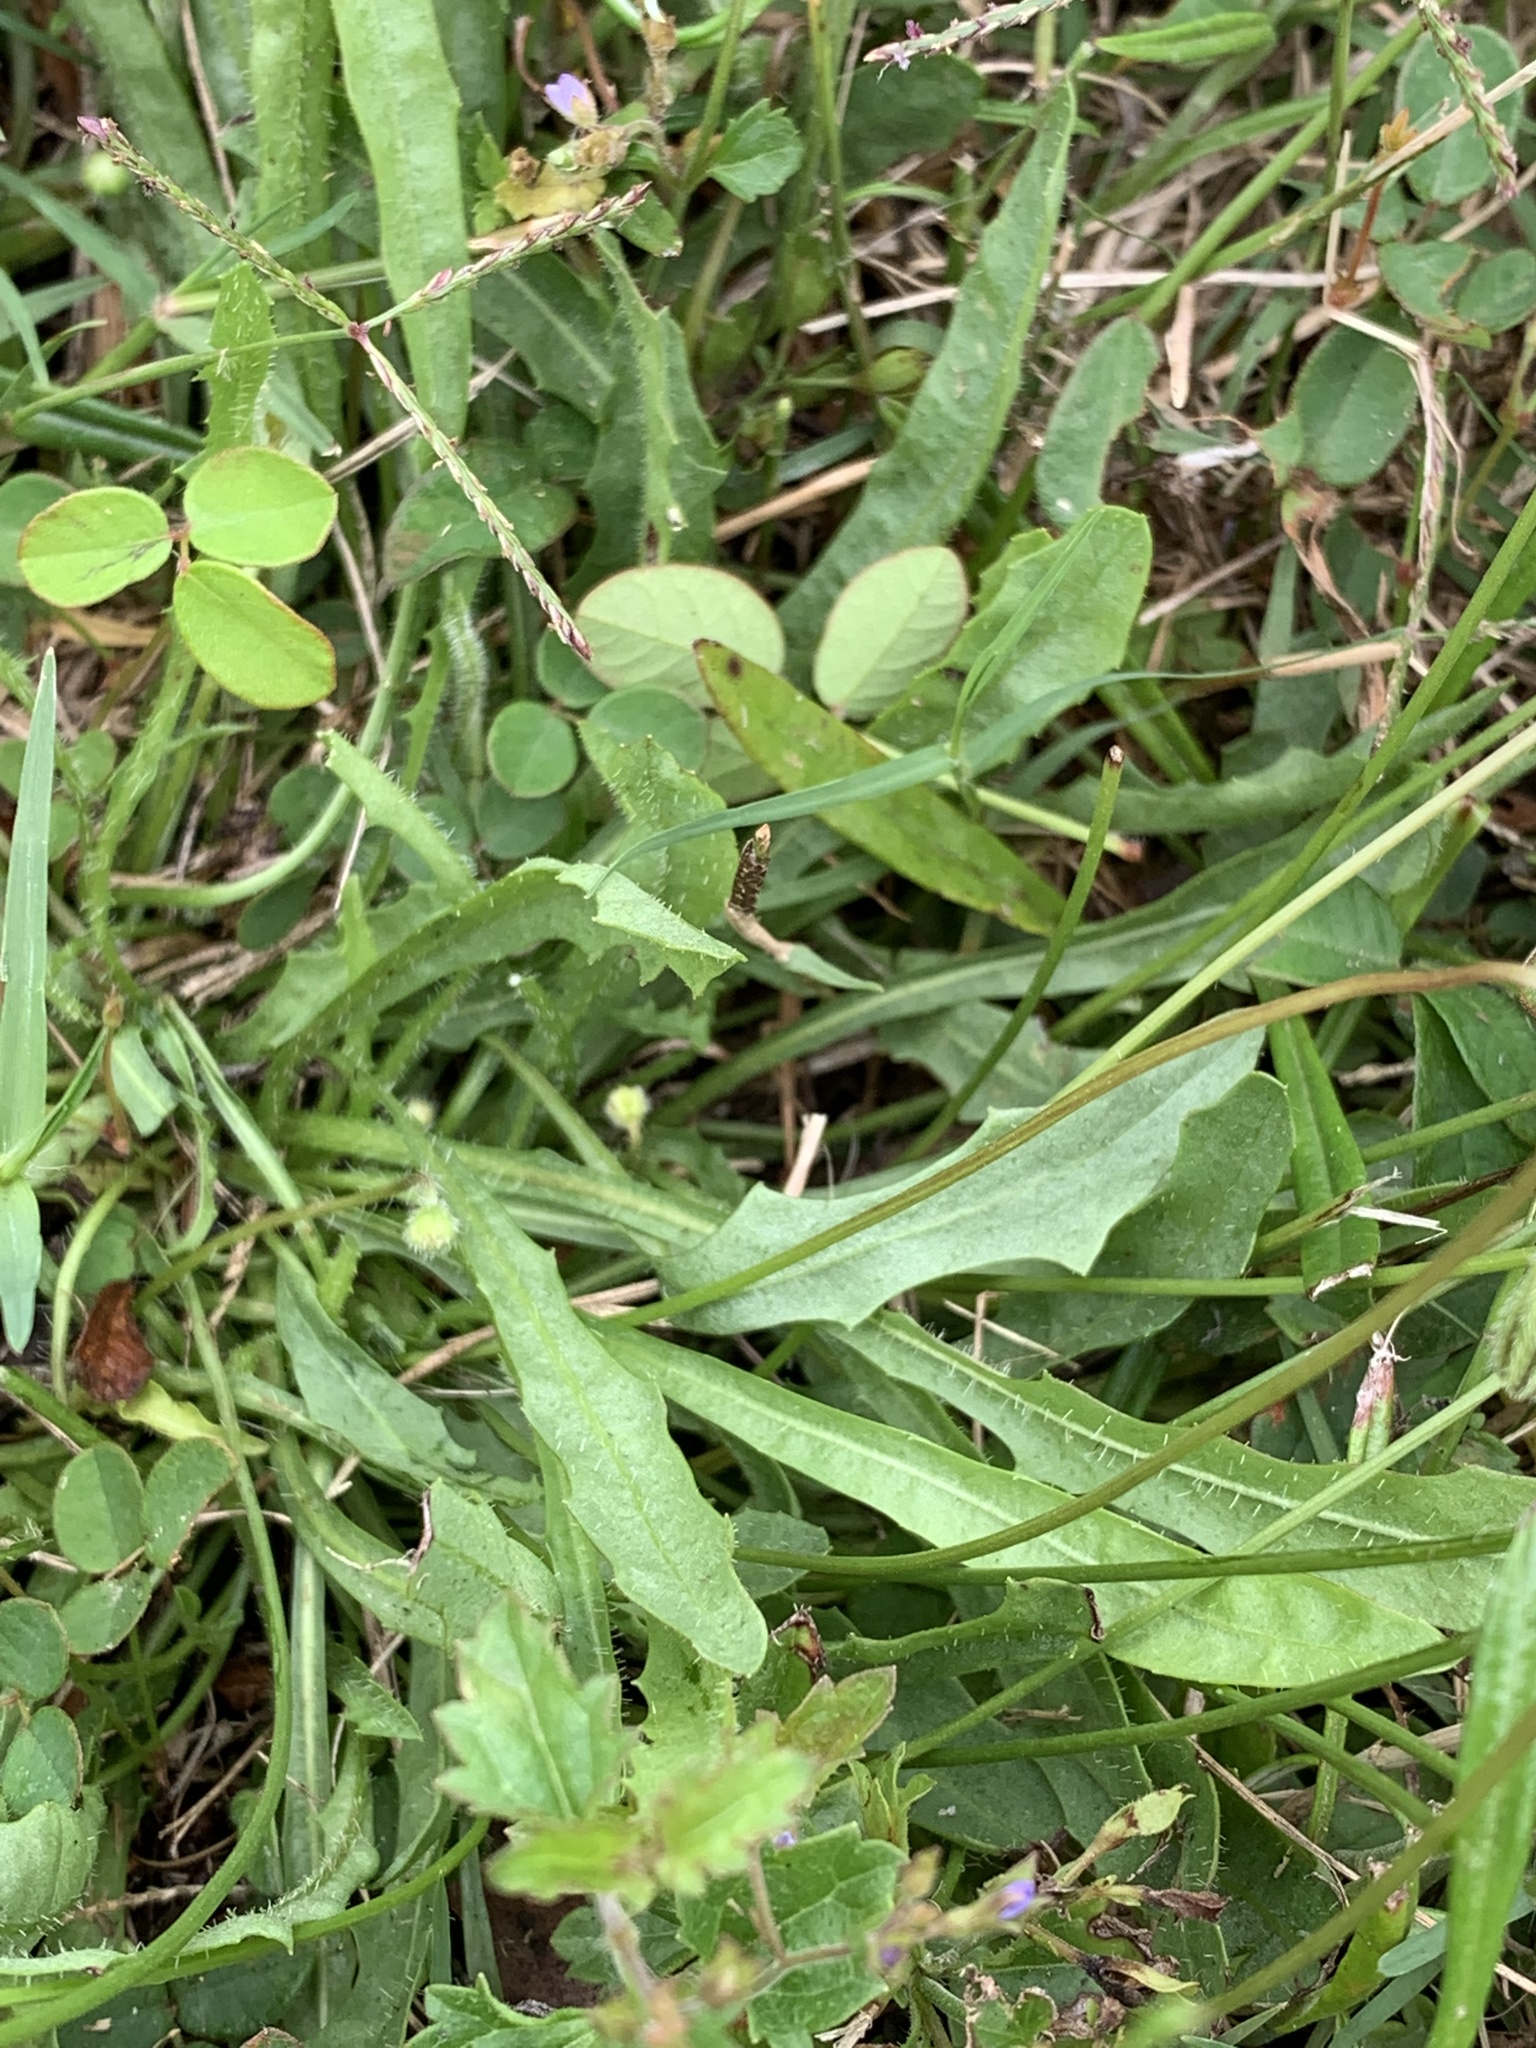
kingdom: Plantae
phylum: Tracheophyta
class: Magnoliopsida
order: Asterales
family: Asteraceae
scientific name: Asteraceae
